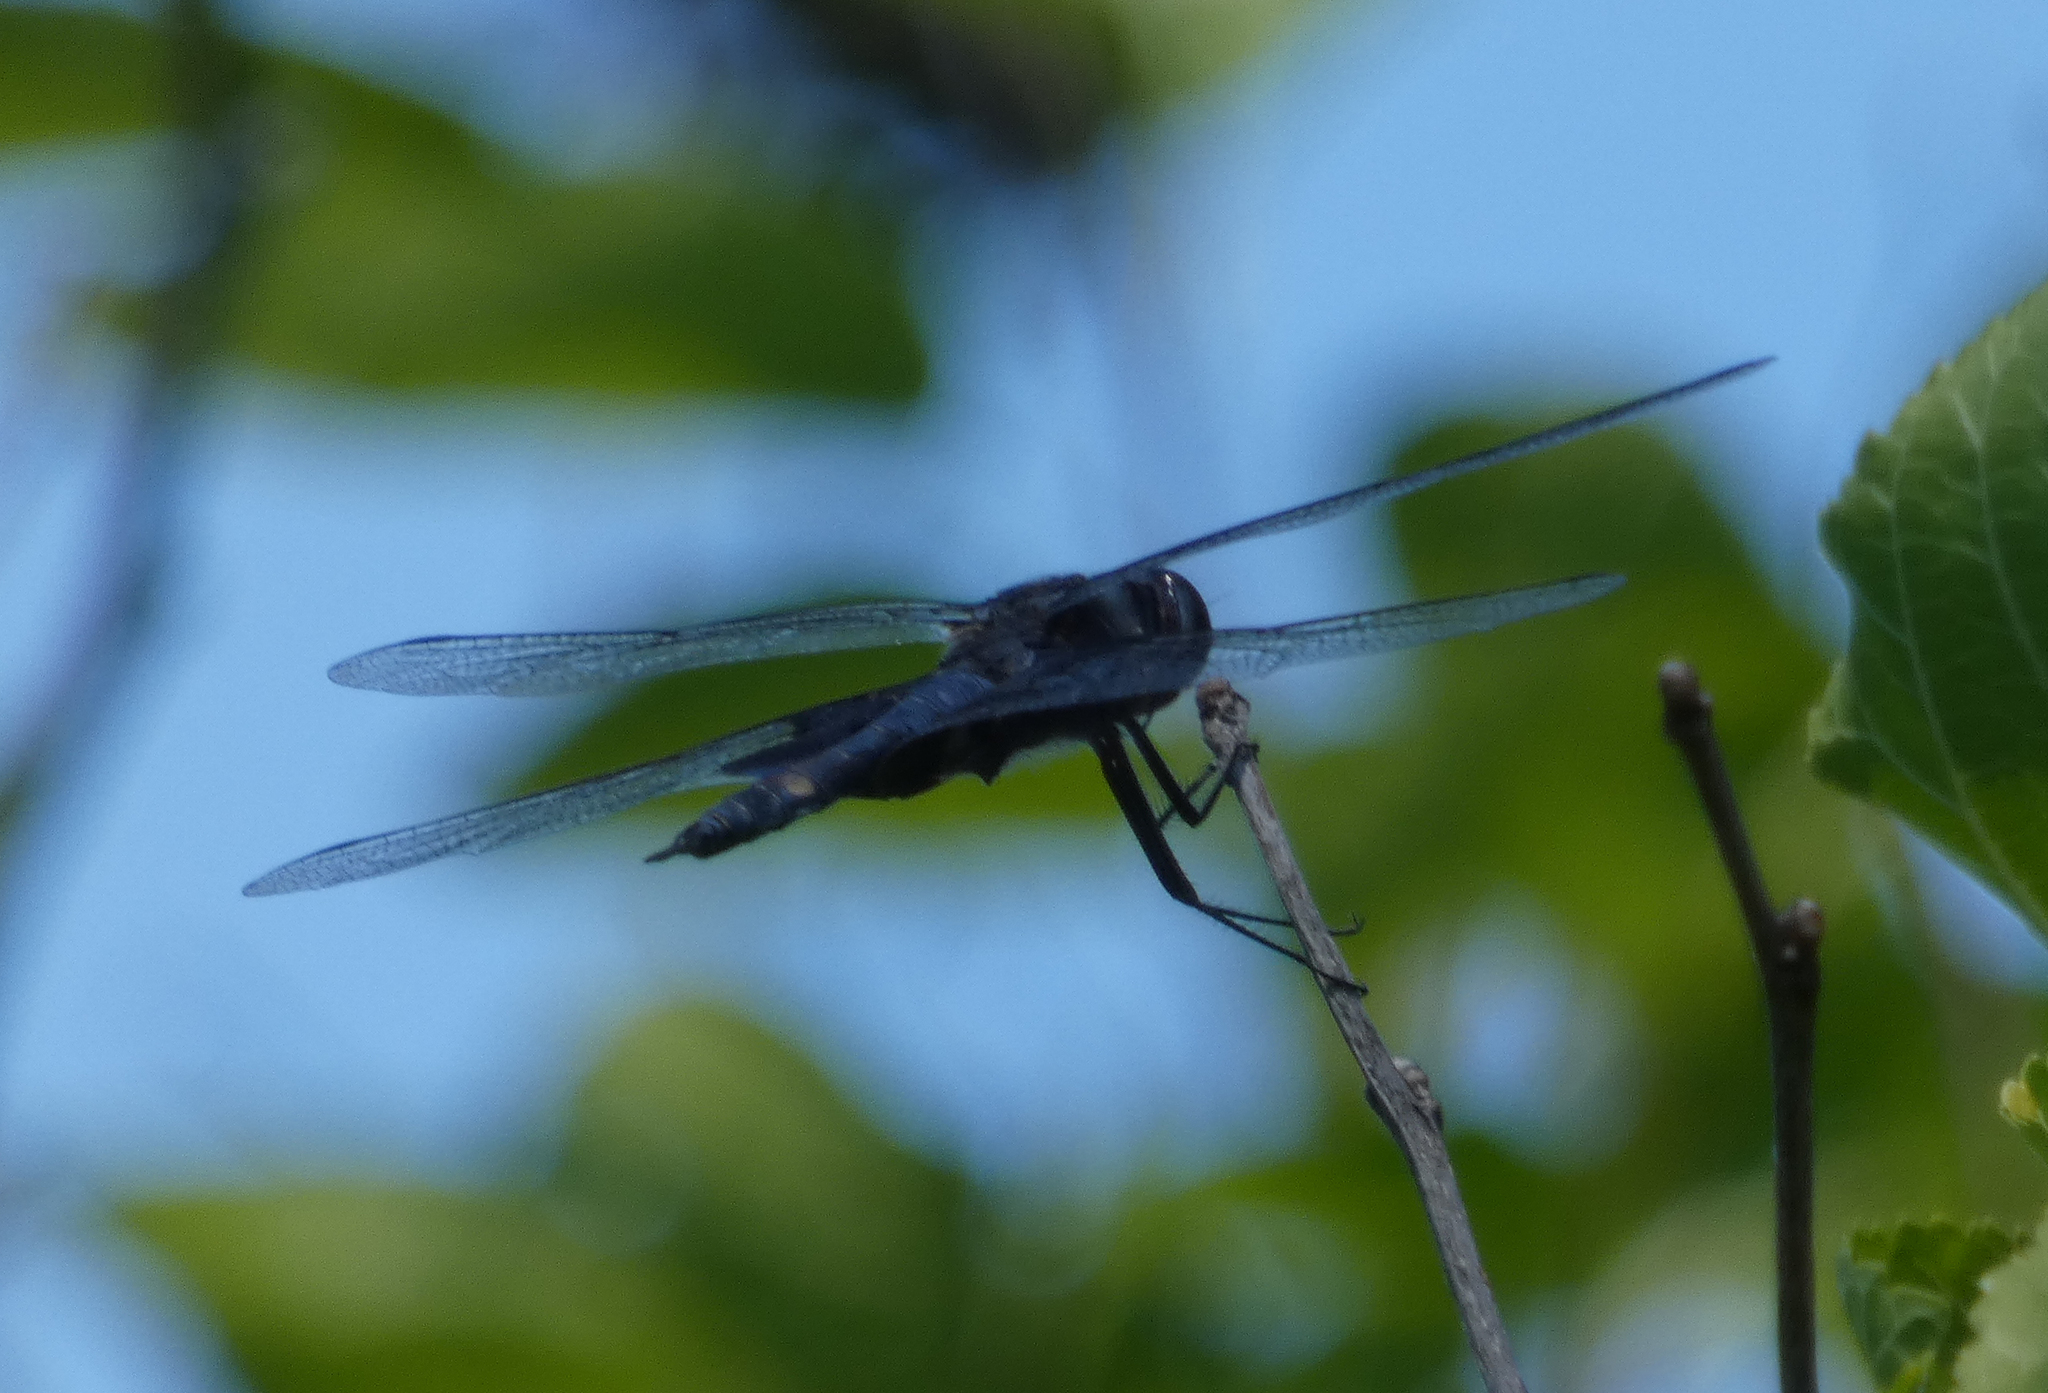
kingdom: Animalia
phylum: Arthropoda
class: Insecta
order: Odonata
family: Libellulidae
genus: Tramea
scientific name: Tramea lacerata
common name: Black saddlebags
